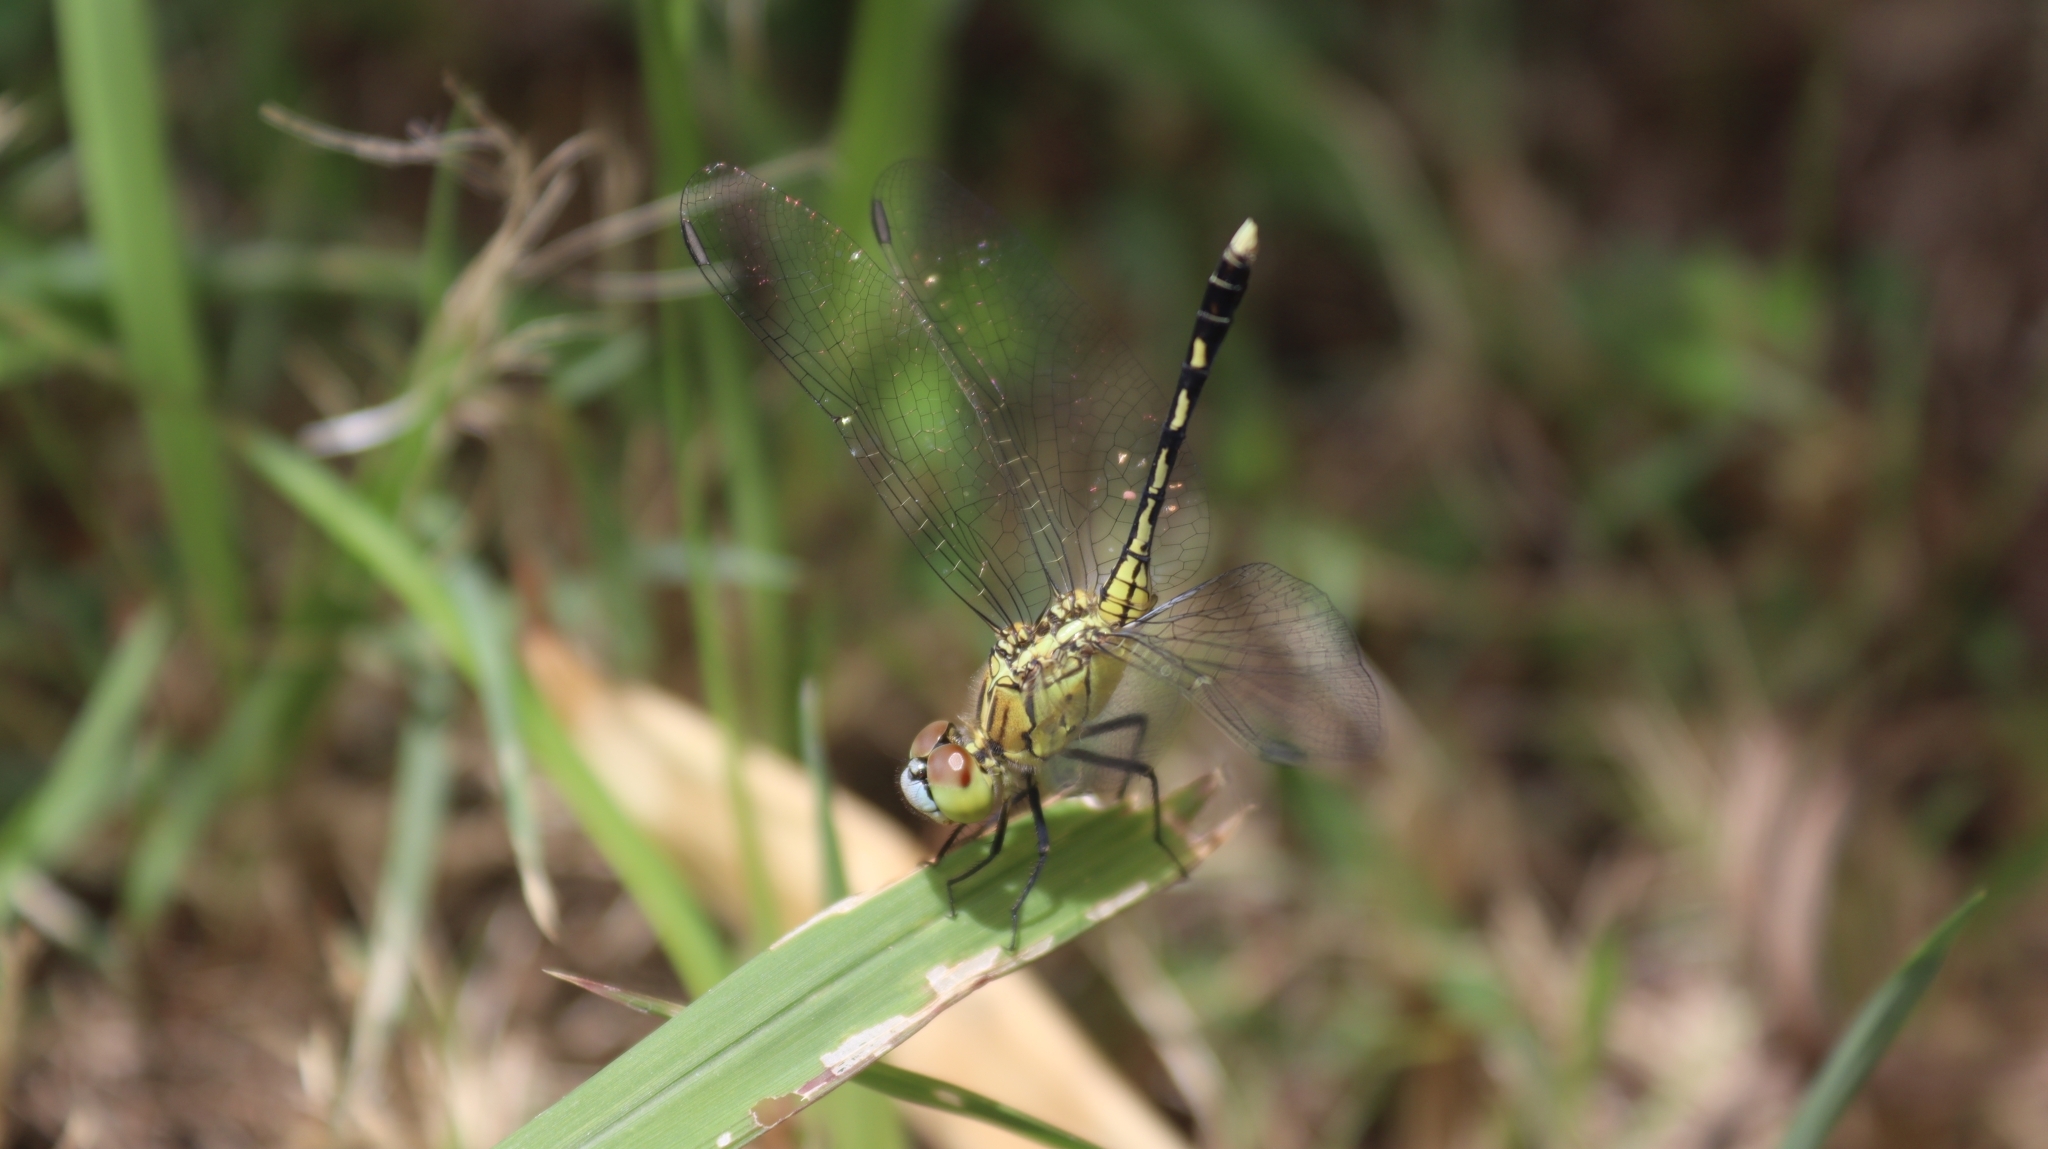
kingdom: Animalia
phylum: Arthropoda
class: Insecta
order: Odonata
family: Libellulidae
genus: Diplacodes
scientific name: Diplacodes trivialis
